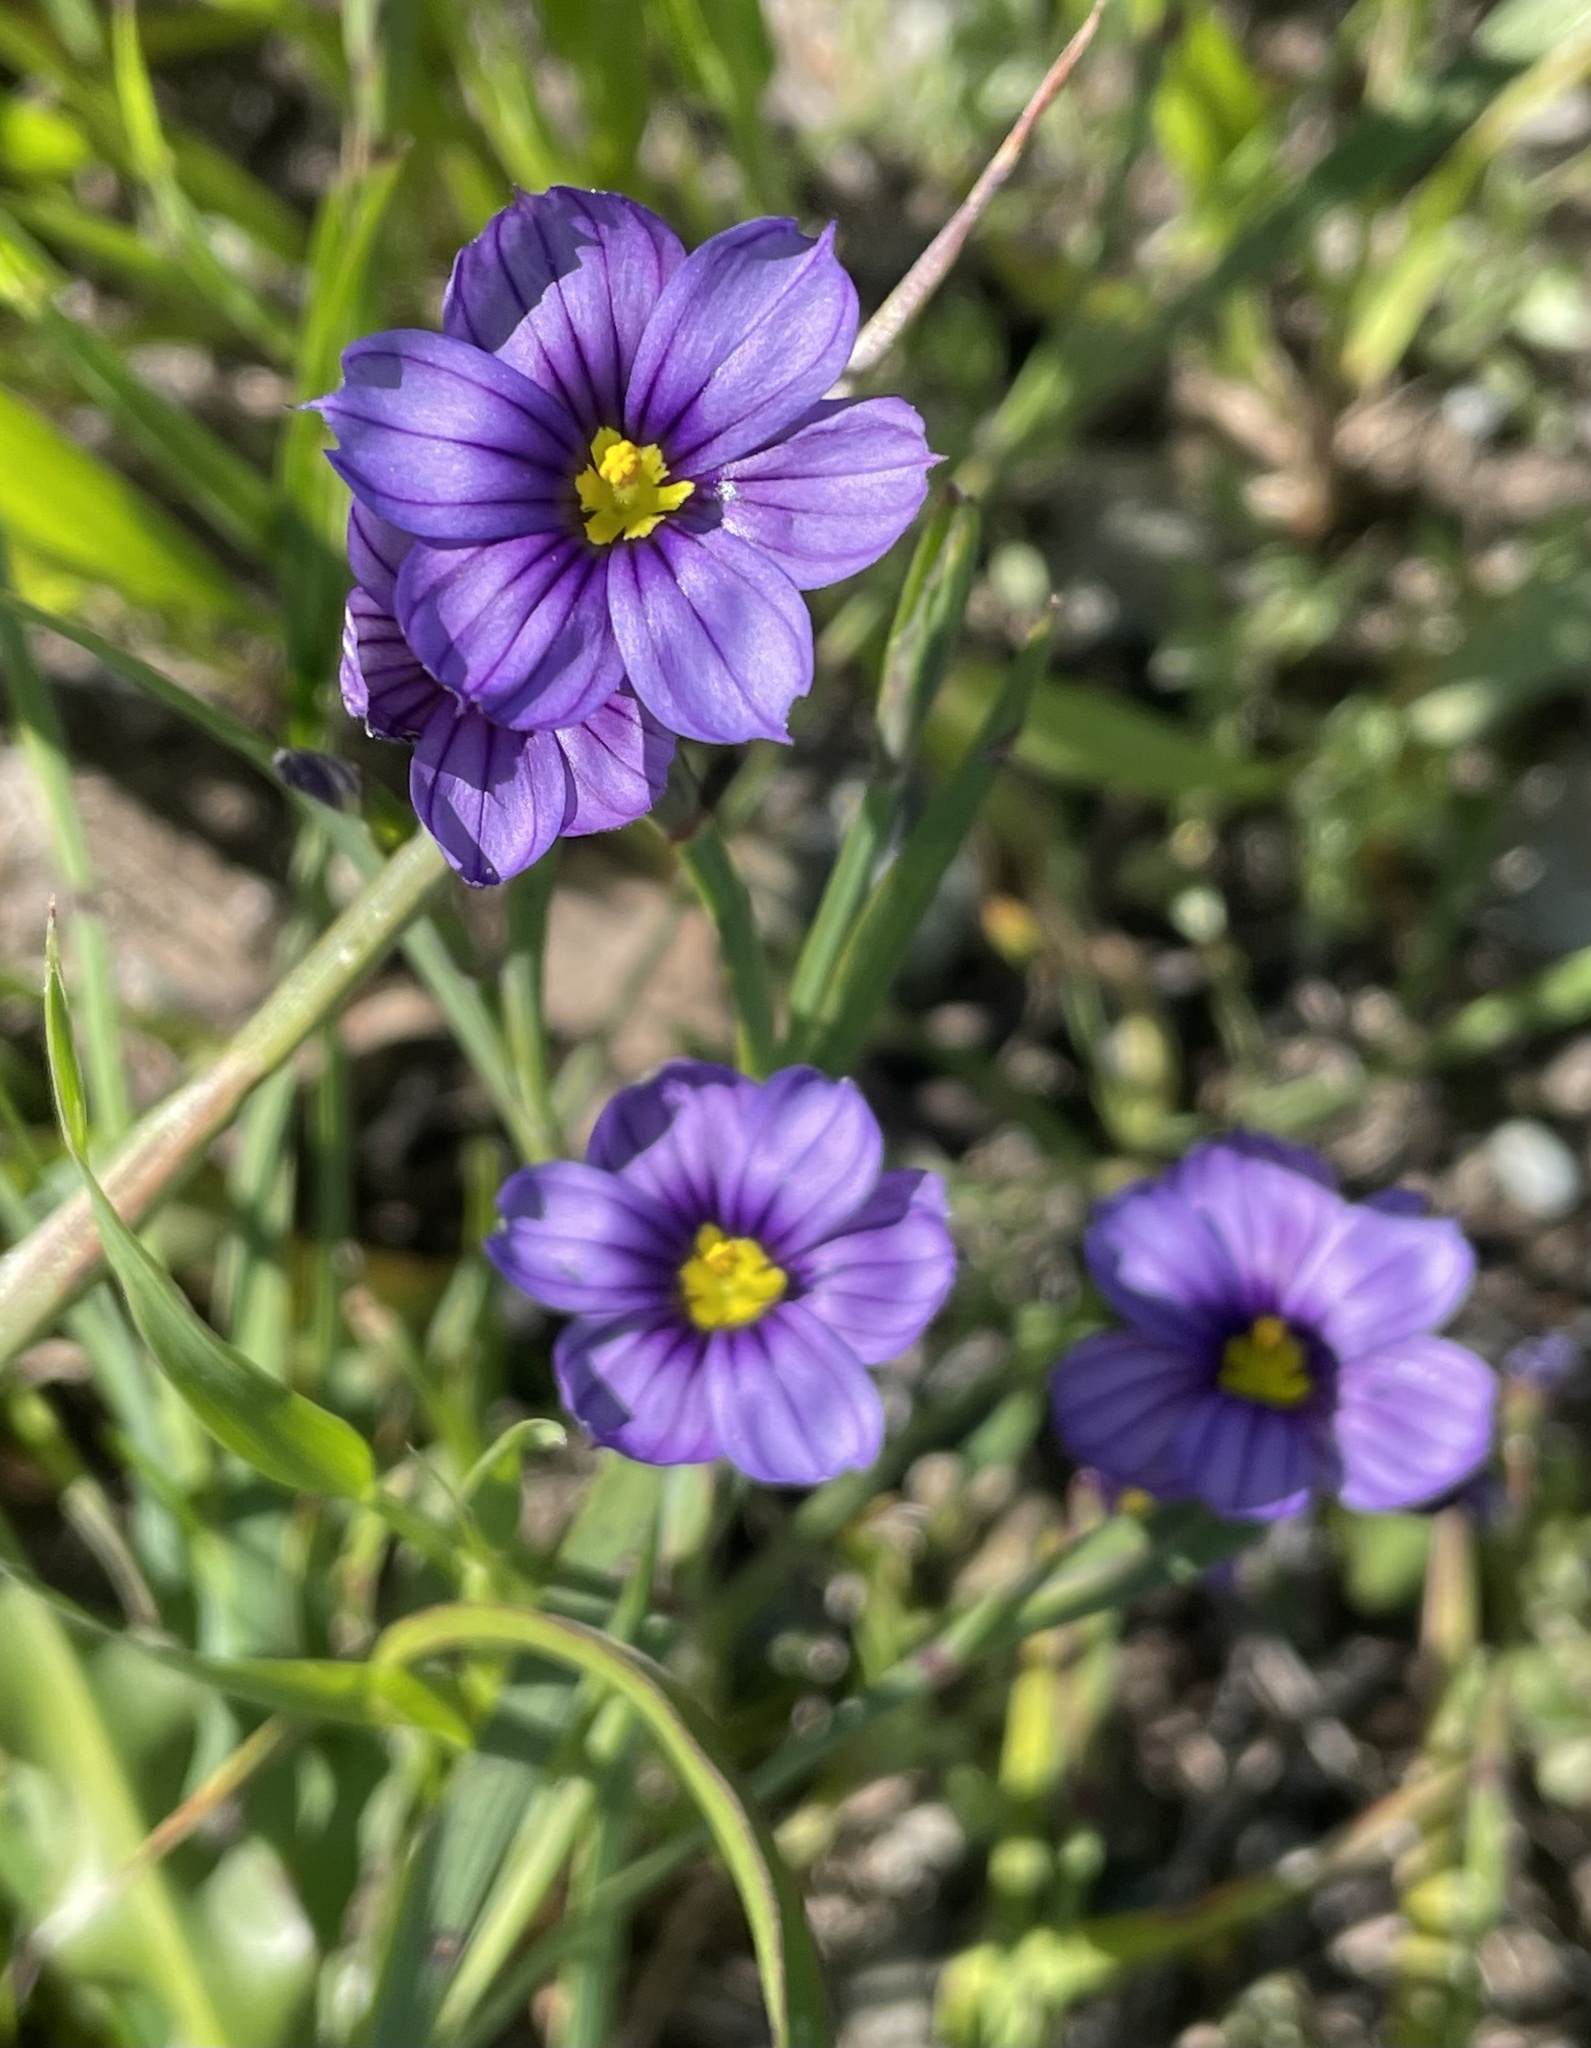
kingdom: Plantae
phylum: Tracheophyta
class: Liliopsida
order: Asparagales
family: Iridaceae
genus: Sisyrinchium
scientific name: Sisyrinchium bellum
